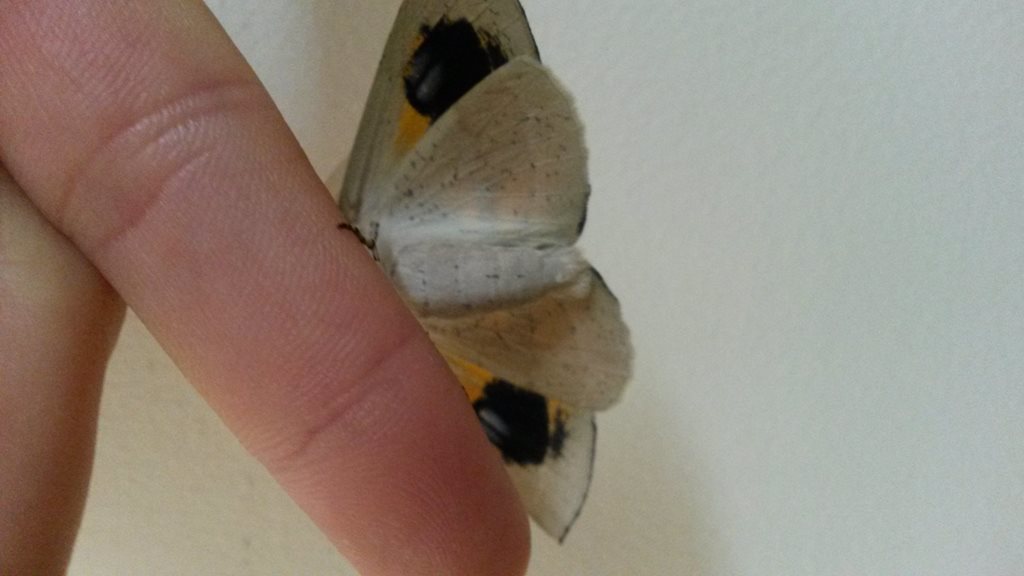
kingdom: Animalia
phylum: Arthropoda
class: Insecta
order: Lepidoptera
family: Geometridae
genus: Gastrophora
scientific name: Gastrophora henricaria
